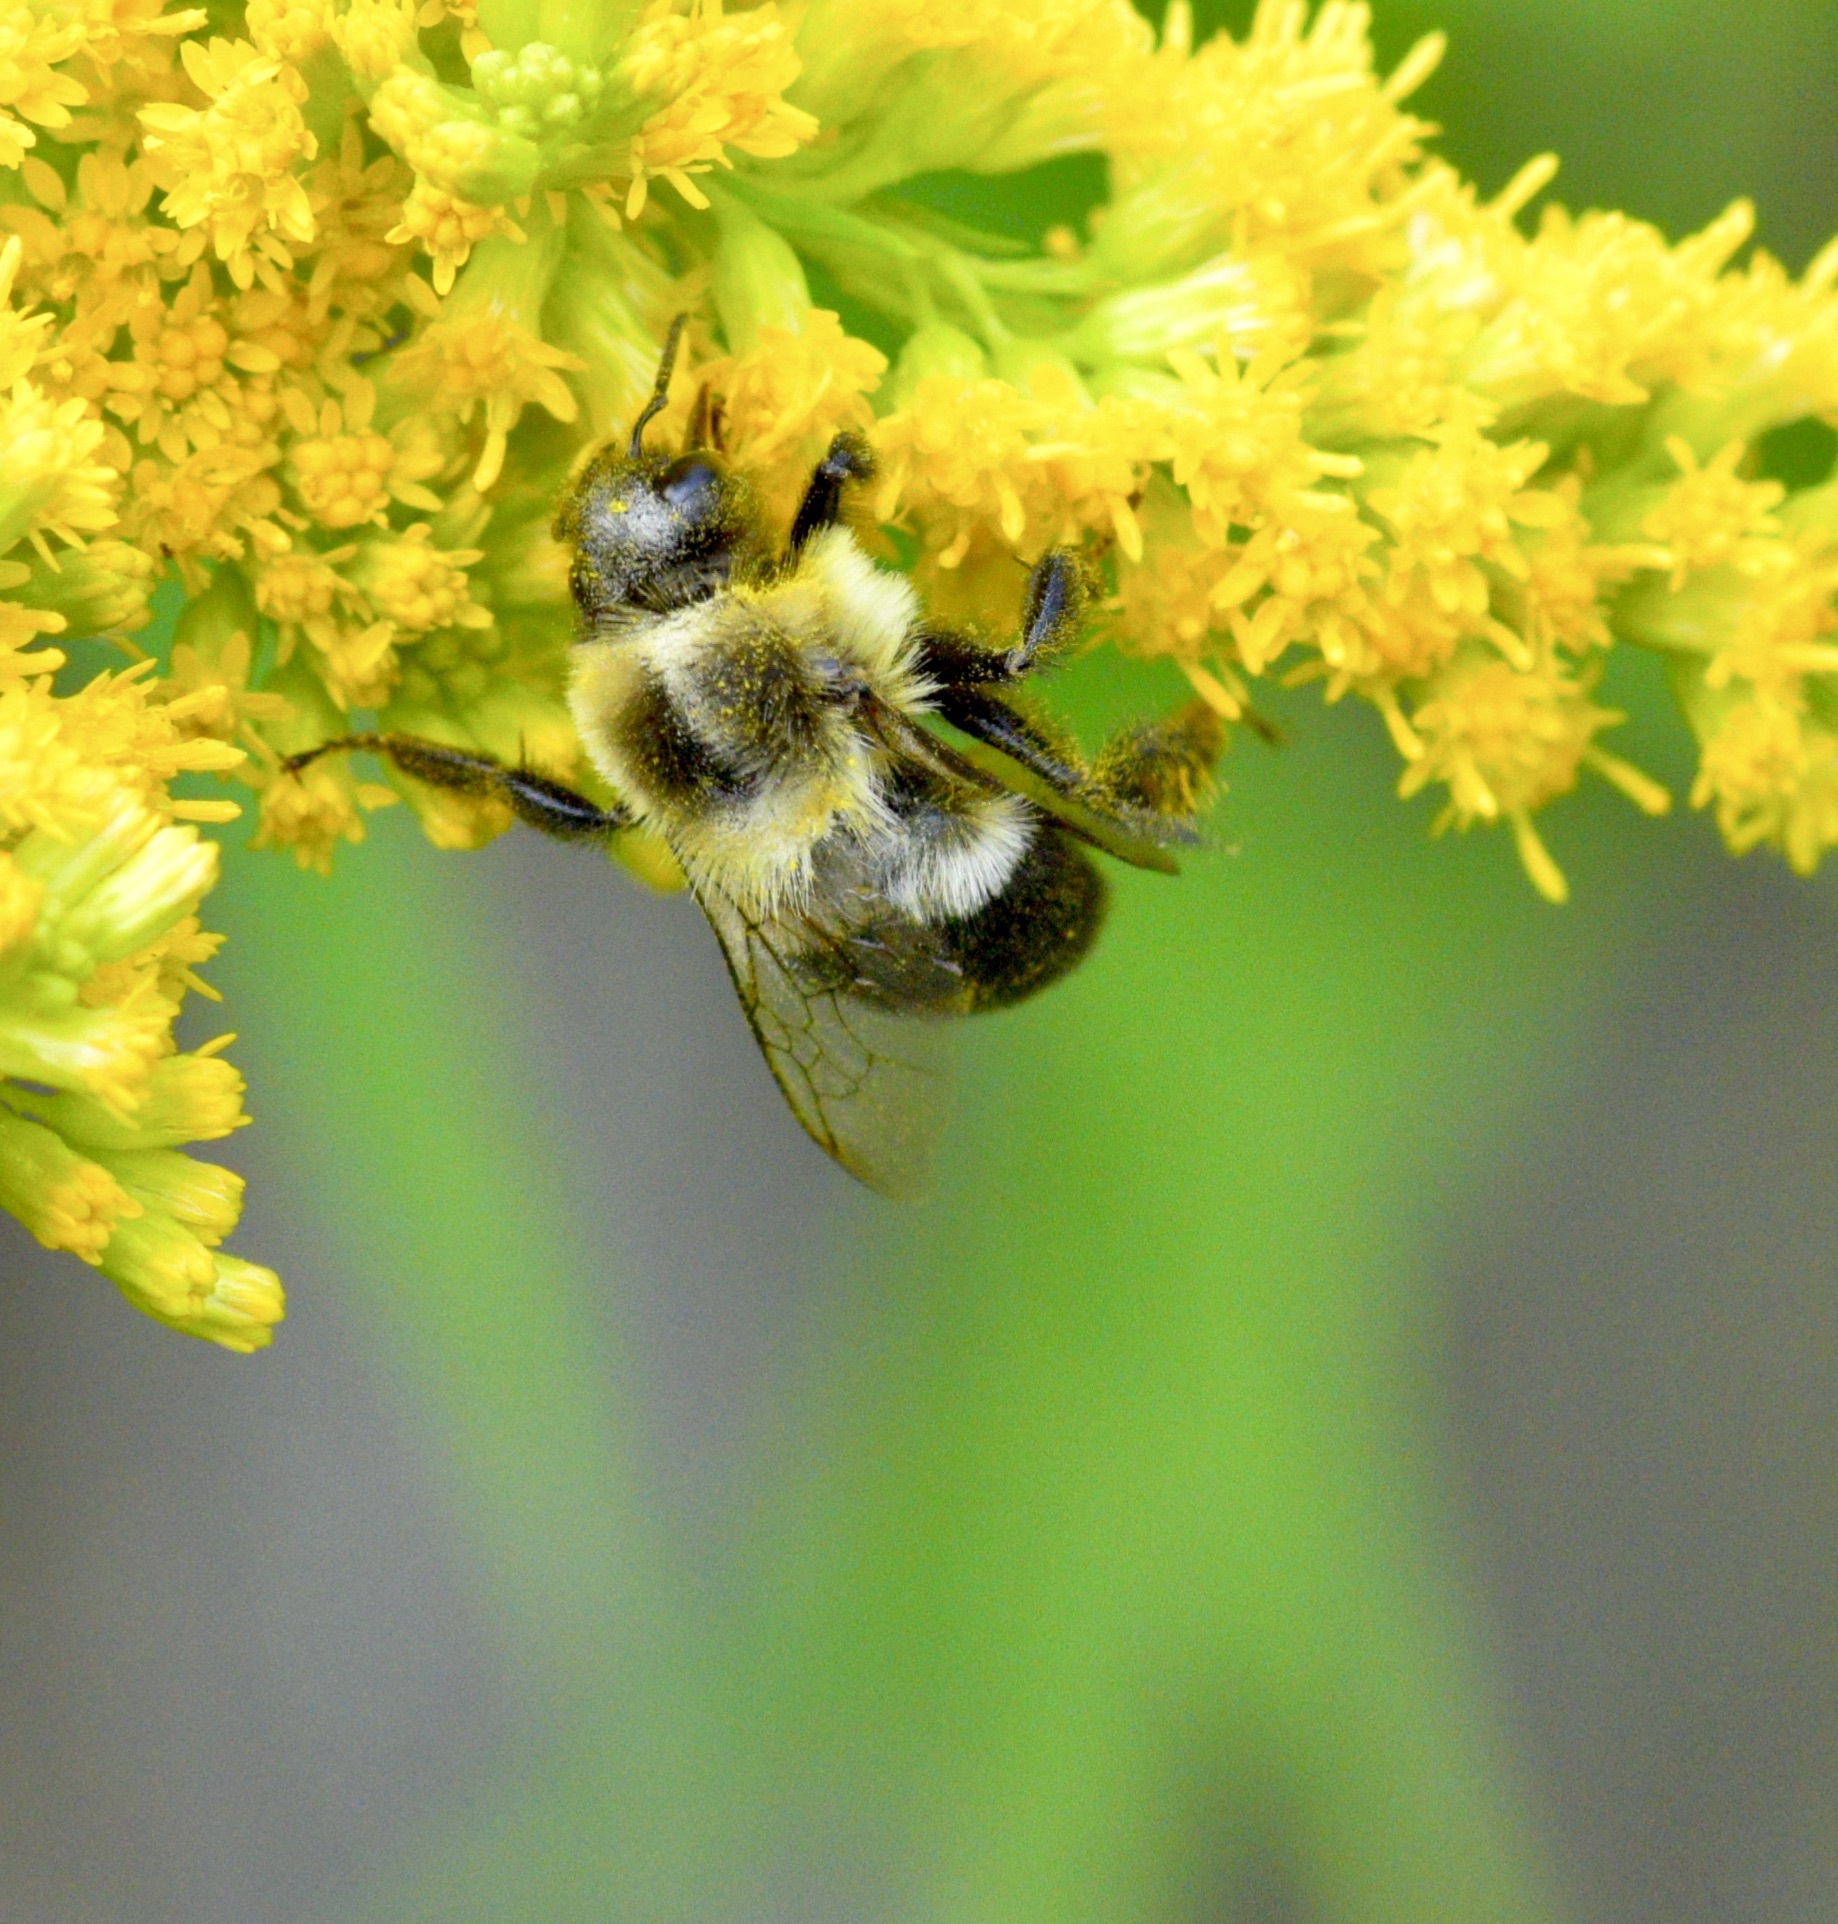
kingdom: Animalia
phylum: Arthropoda
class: Insecta
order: Hymenoptera
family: Apidae
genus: Bombus
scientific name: Bombus impatiens
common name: Common eastern bumble bee
